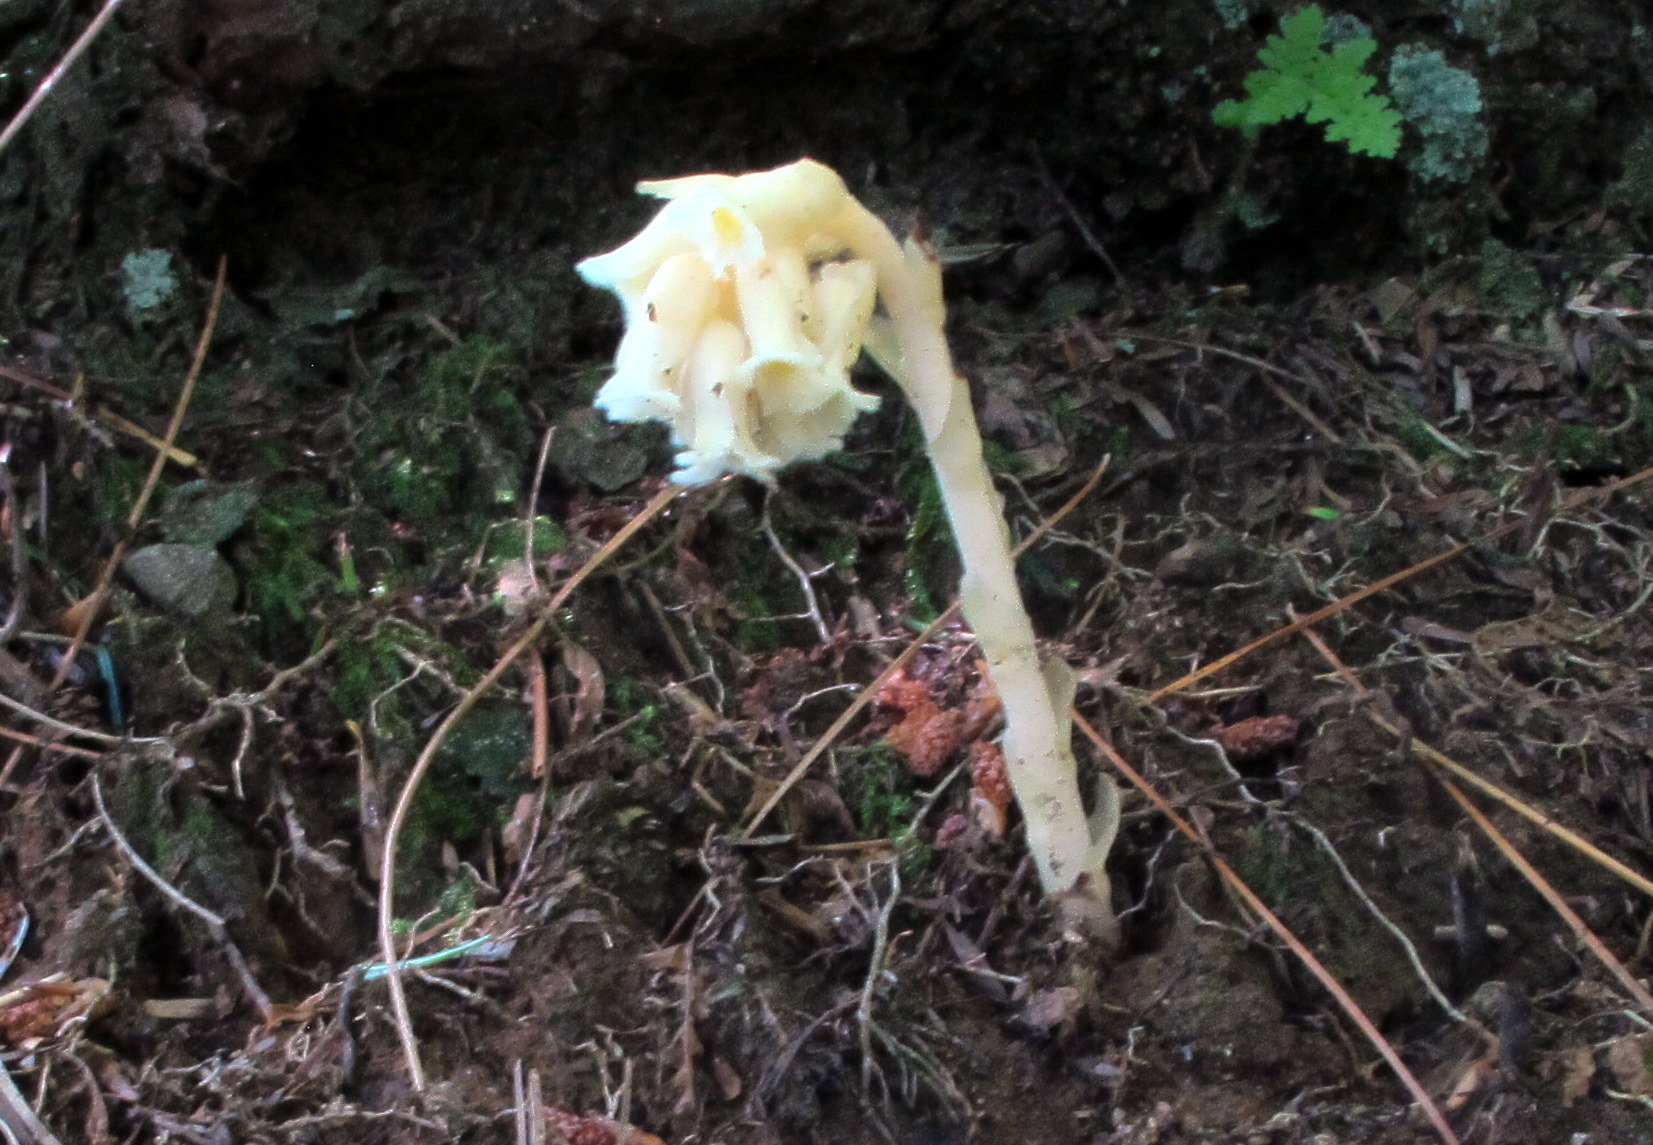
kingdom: Plantae
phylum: Tracheophyta
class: Magnoliopsida
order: Ericales
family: Ericaceae
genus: Hypopitys
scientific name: Hypopitys monotropa
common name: Yellow bird's-nest
